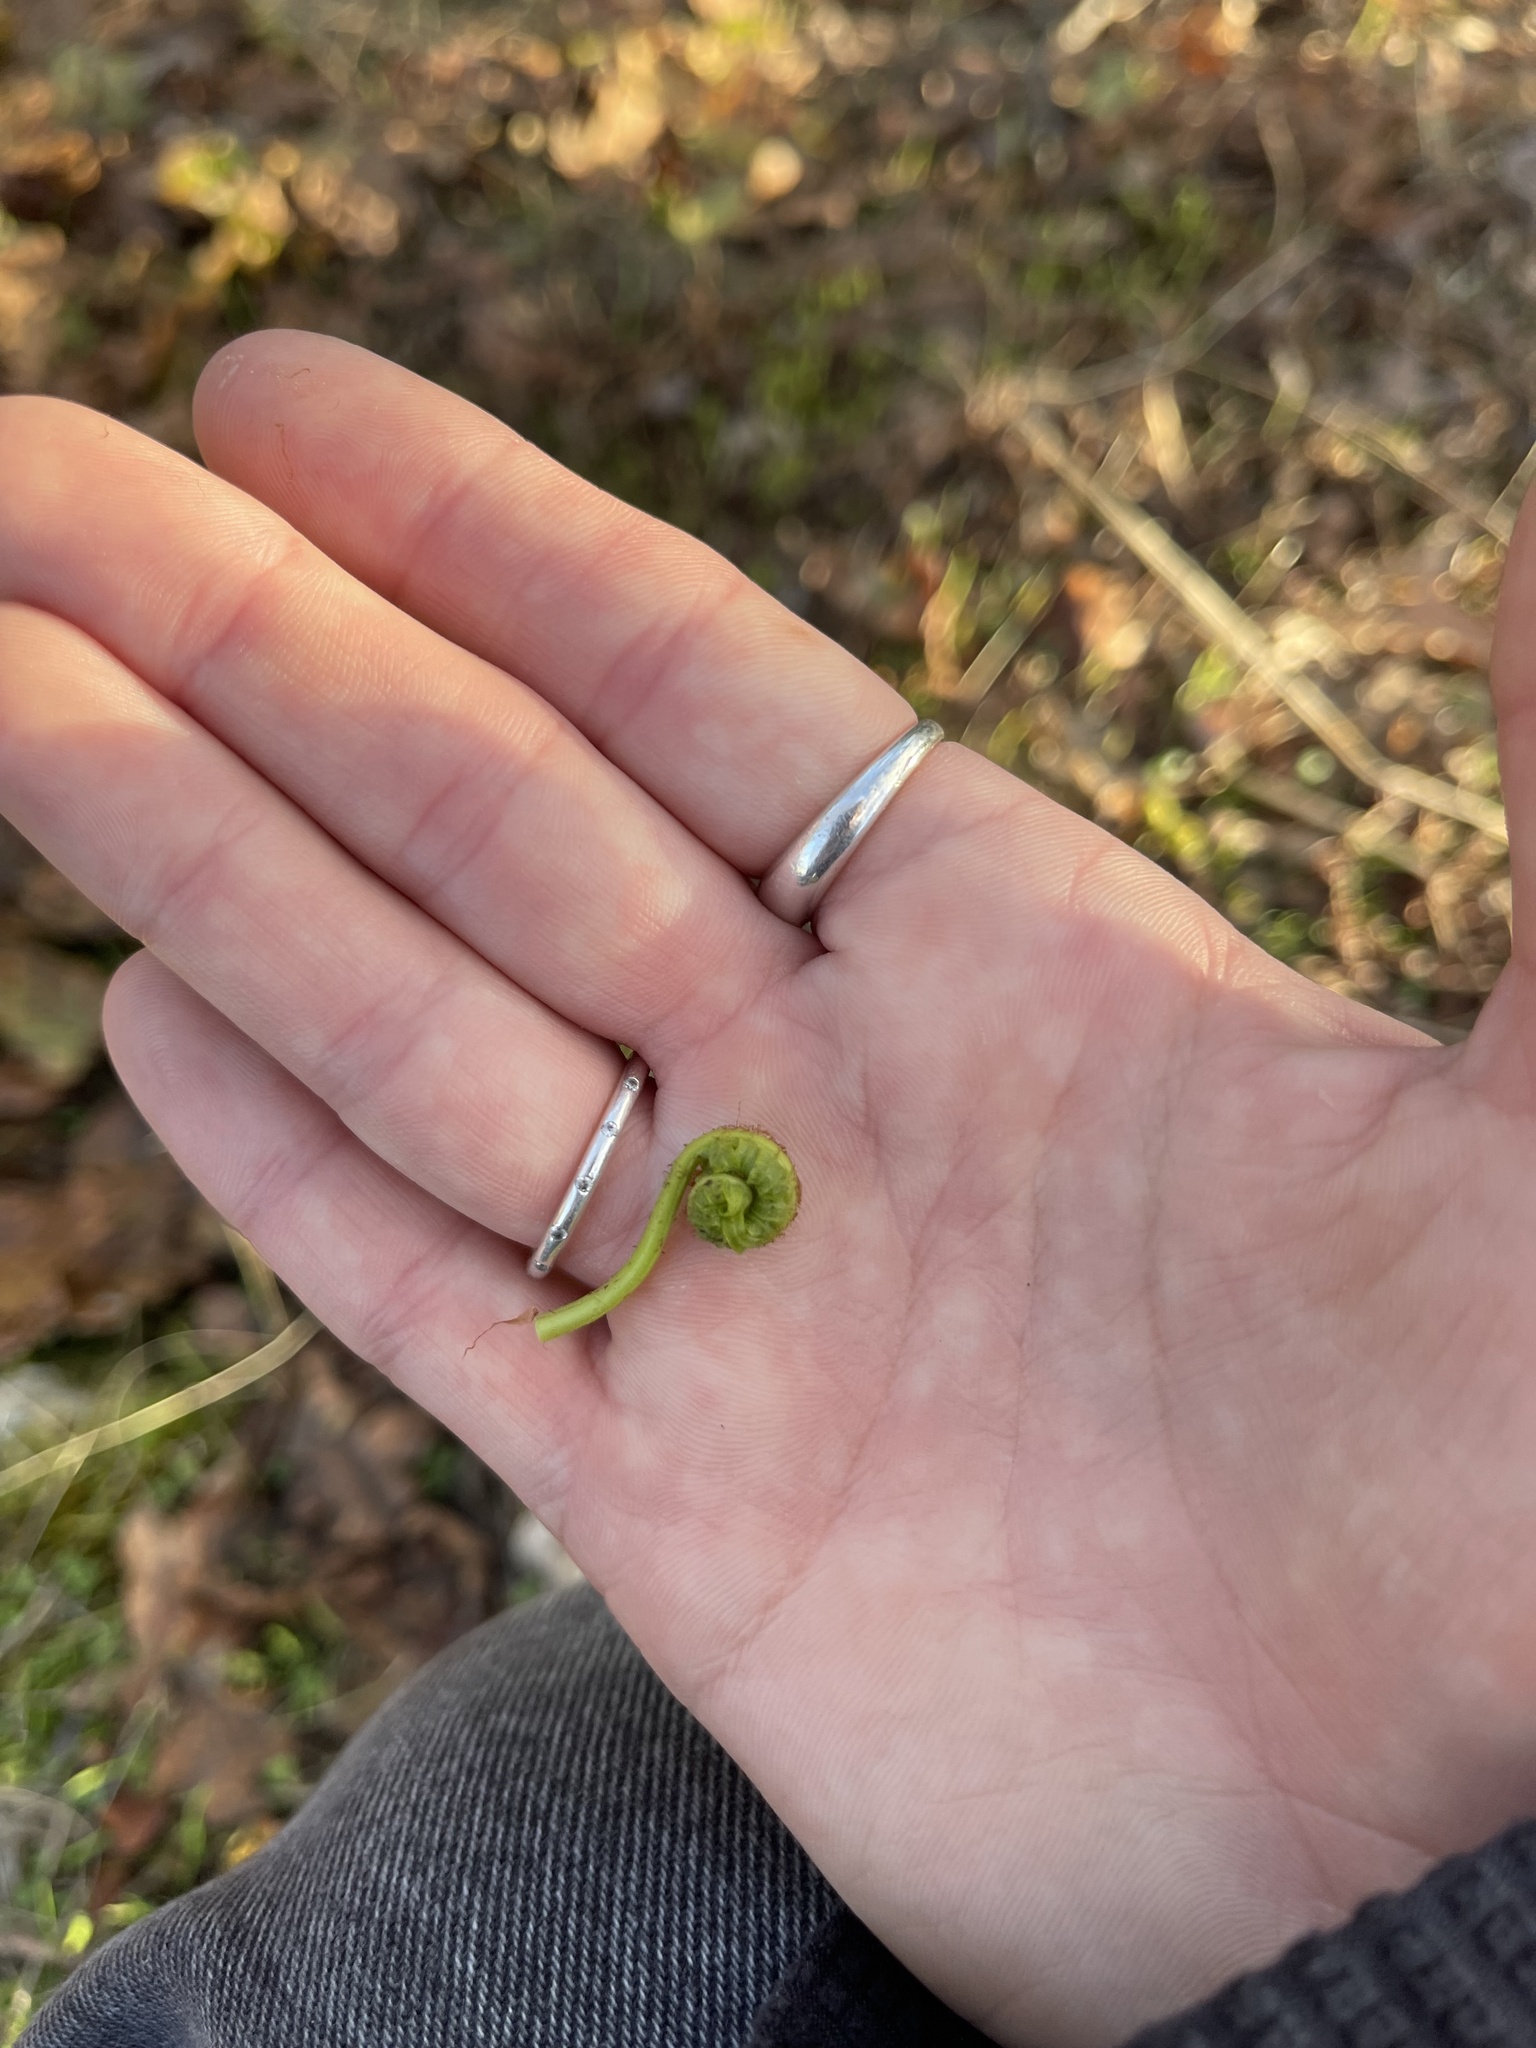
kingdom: Plantae
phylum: Tracheophyta
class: Polypodiopsida
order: Polypodiales
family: Polypodiaceae
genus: Polypodium
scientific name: Polypodium glycyrrhiza
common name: Licorice fern
